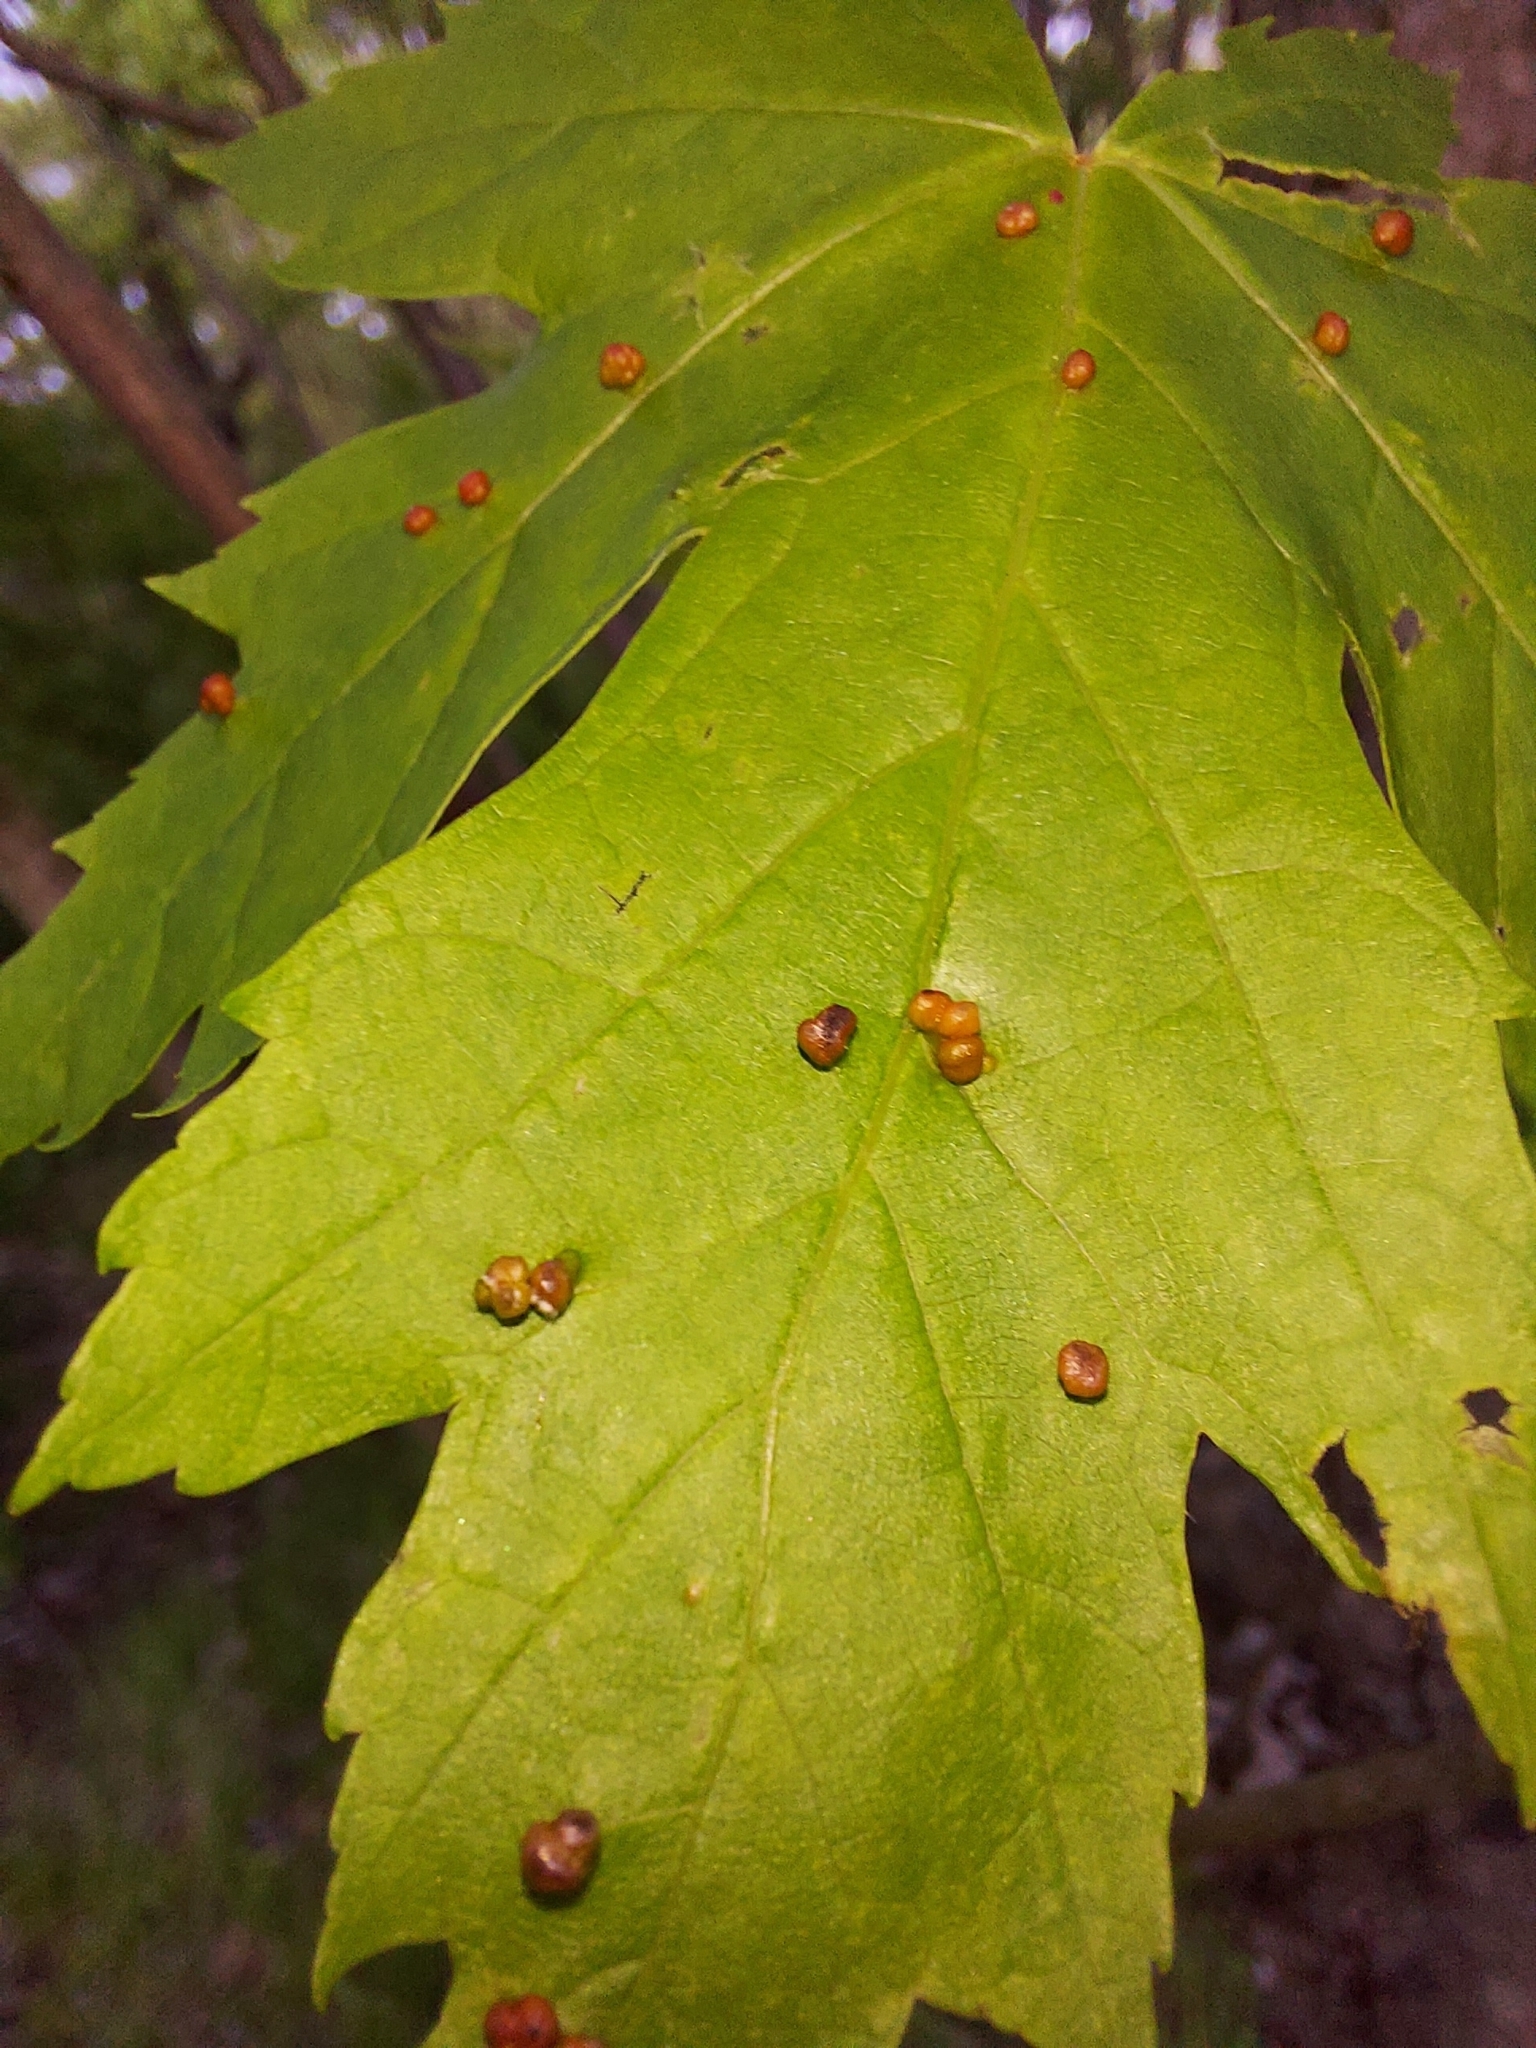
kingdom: Animalia
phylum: Arthropoda
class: Arachnida
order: Trombidiformes
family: Eriophyidae
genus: Vasates
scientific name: Vasates quadripedes
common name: Maple bladder gall mite
